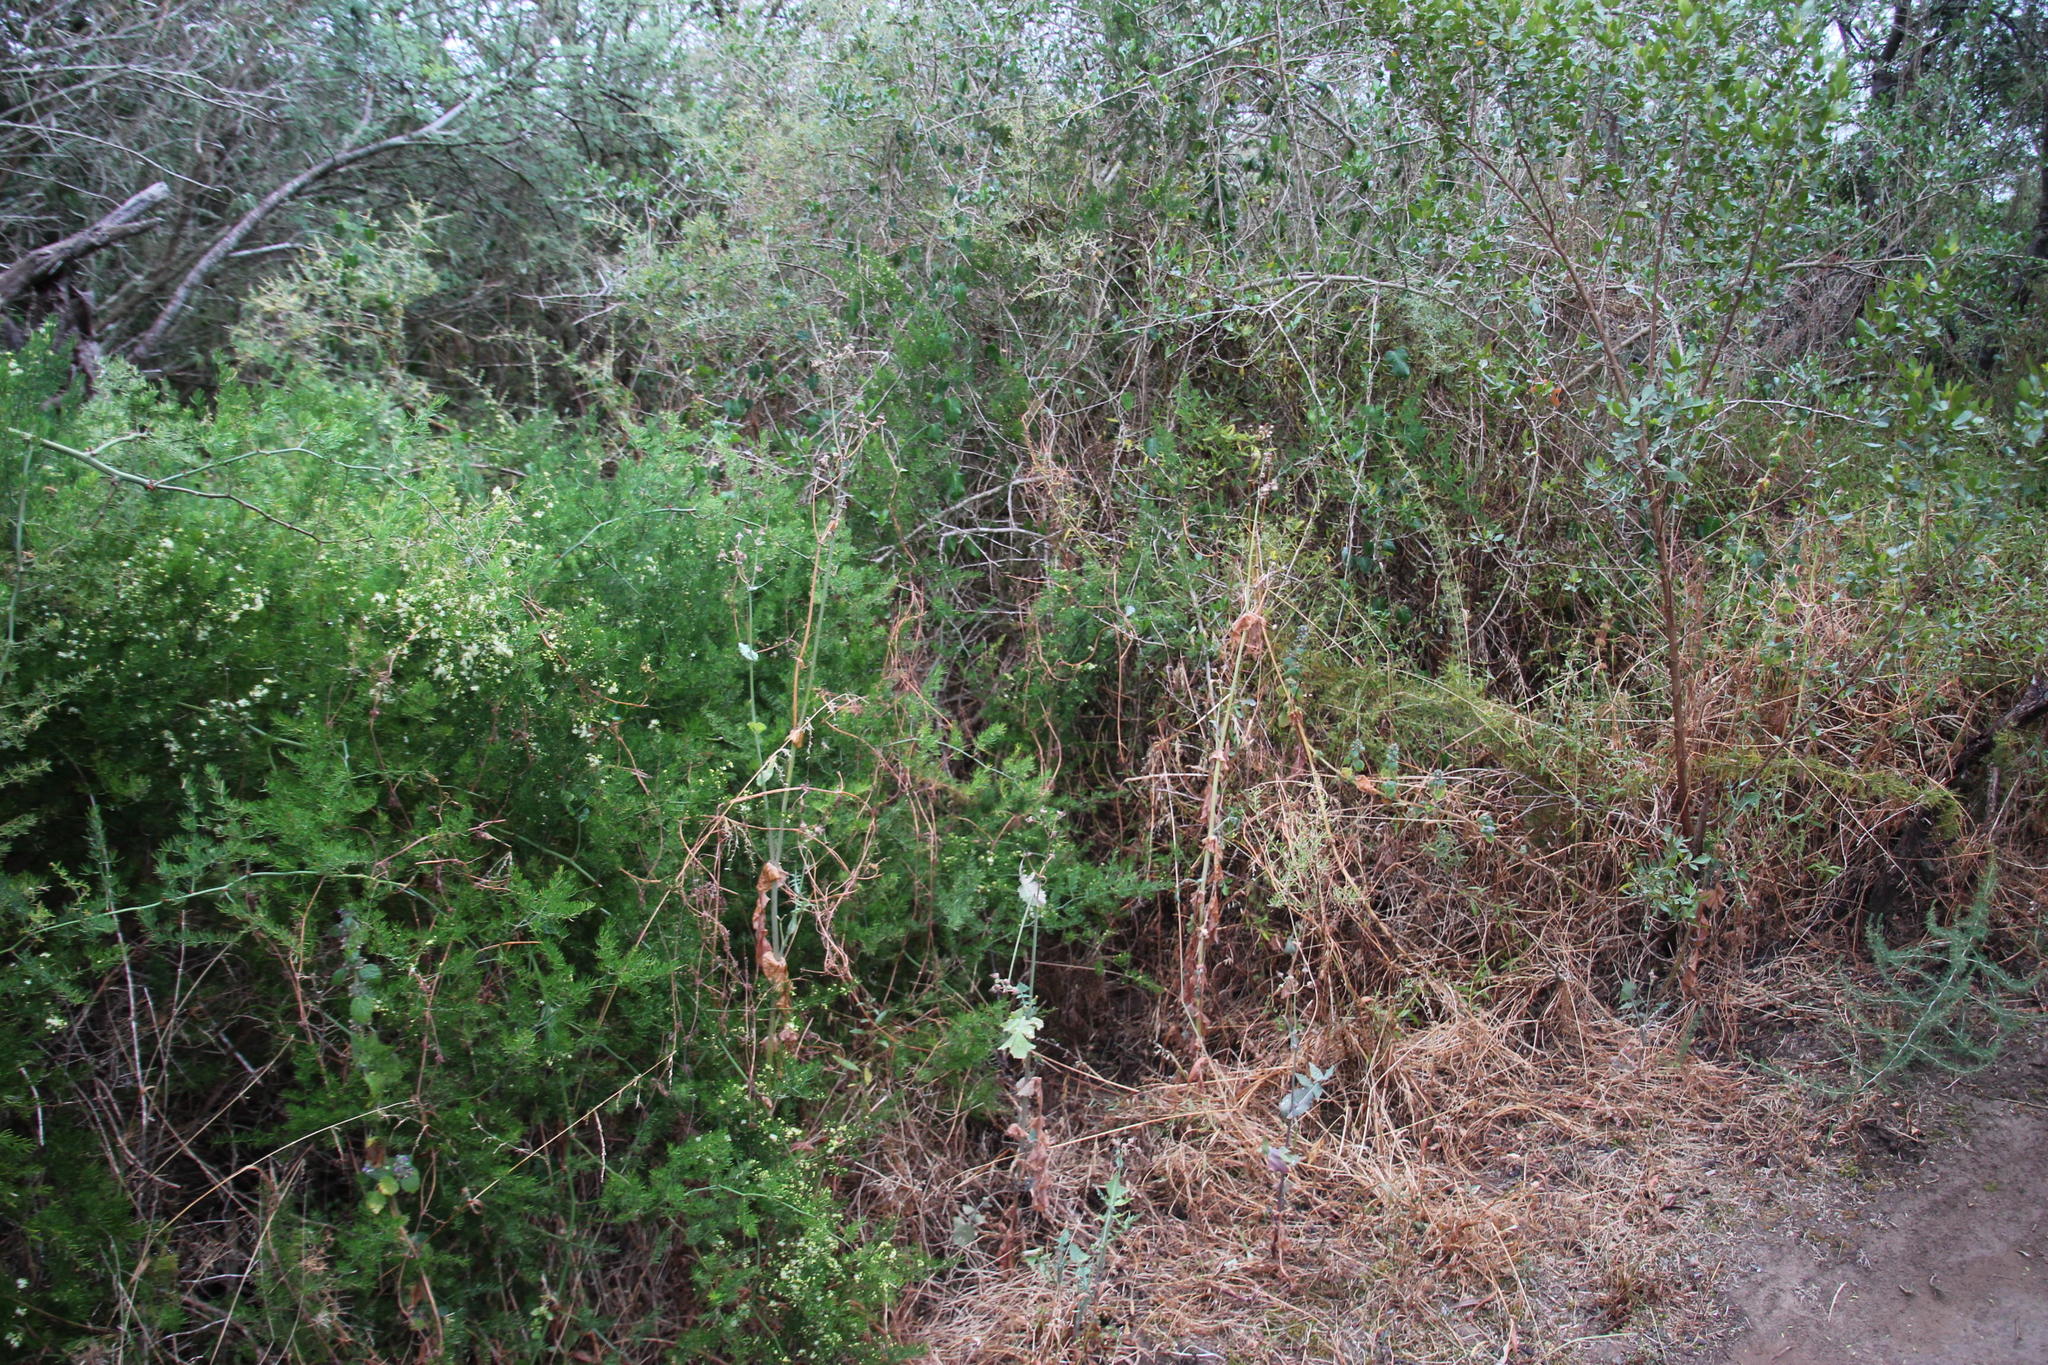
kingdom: Plantae
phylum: Tracheophyta
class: Magnoliopsida
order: Asterales
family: Asteraceae
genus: Sonchus
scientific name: Sonchus oleraceus
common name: Common sowthistle
